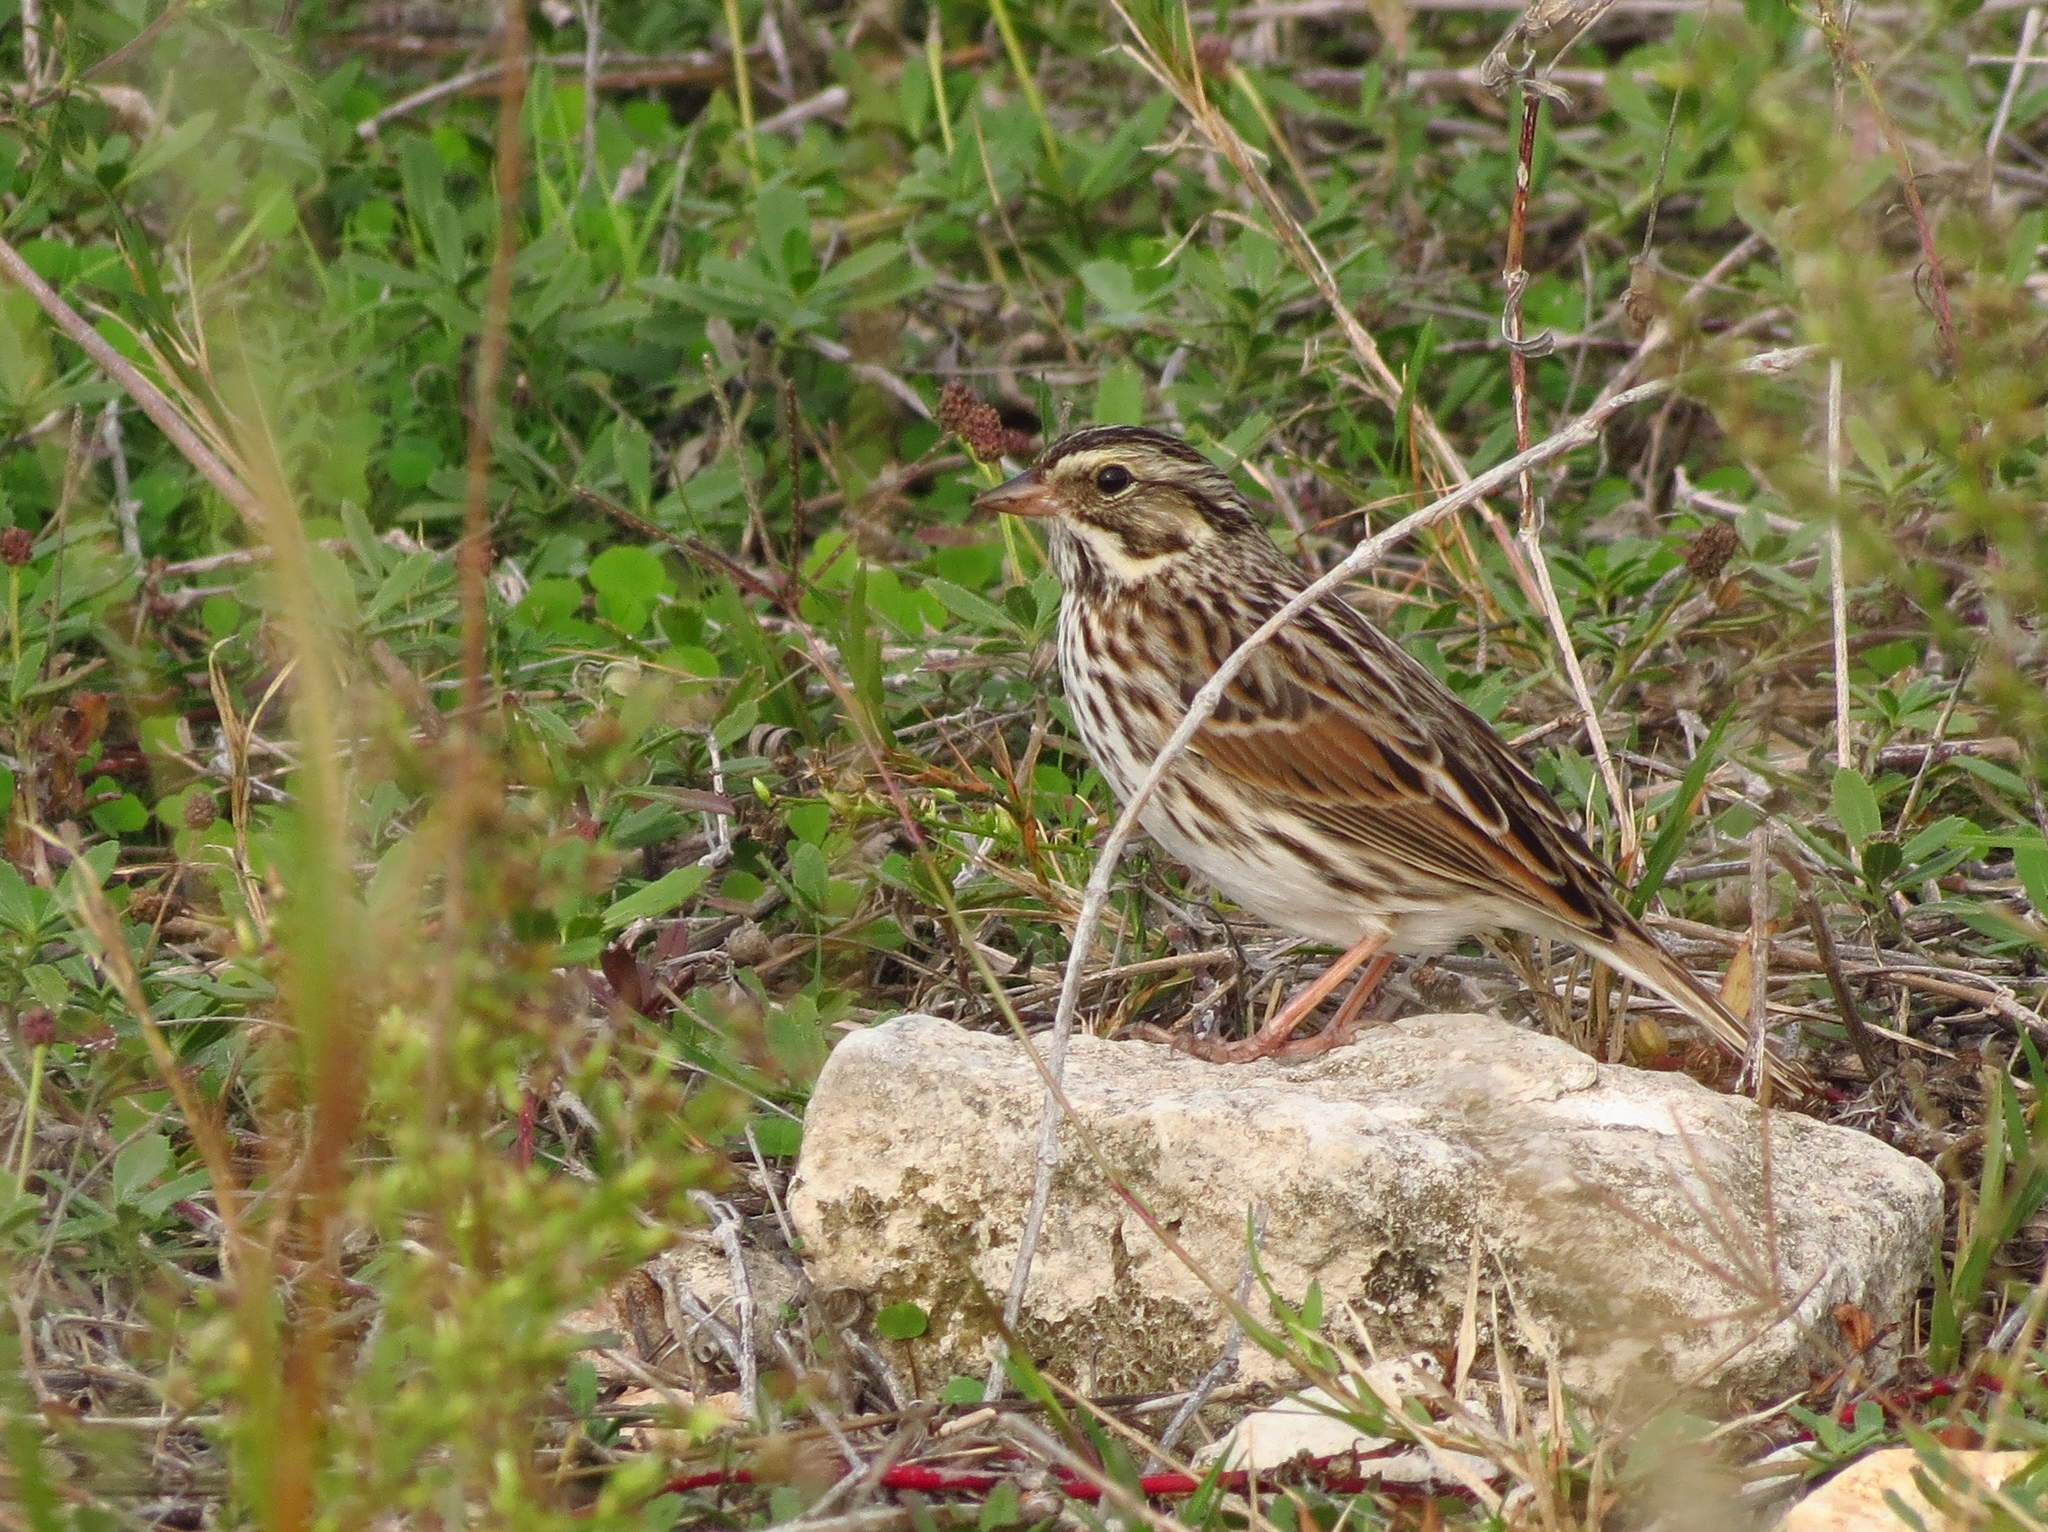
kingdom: Animalia
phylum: Chordata
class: Aves
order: Passeriformes
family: Passerellidae
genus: Passerculus
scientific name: Passerculus sandwichensis
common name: Savannah sparrow
